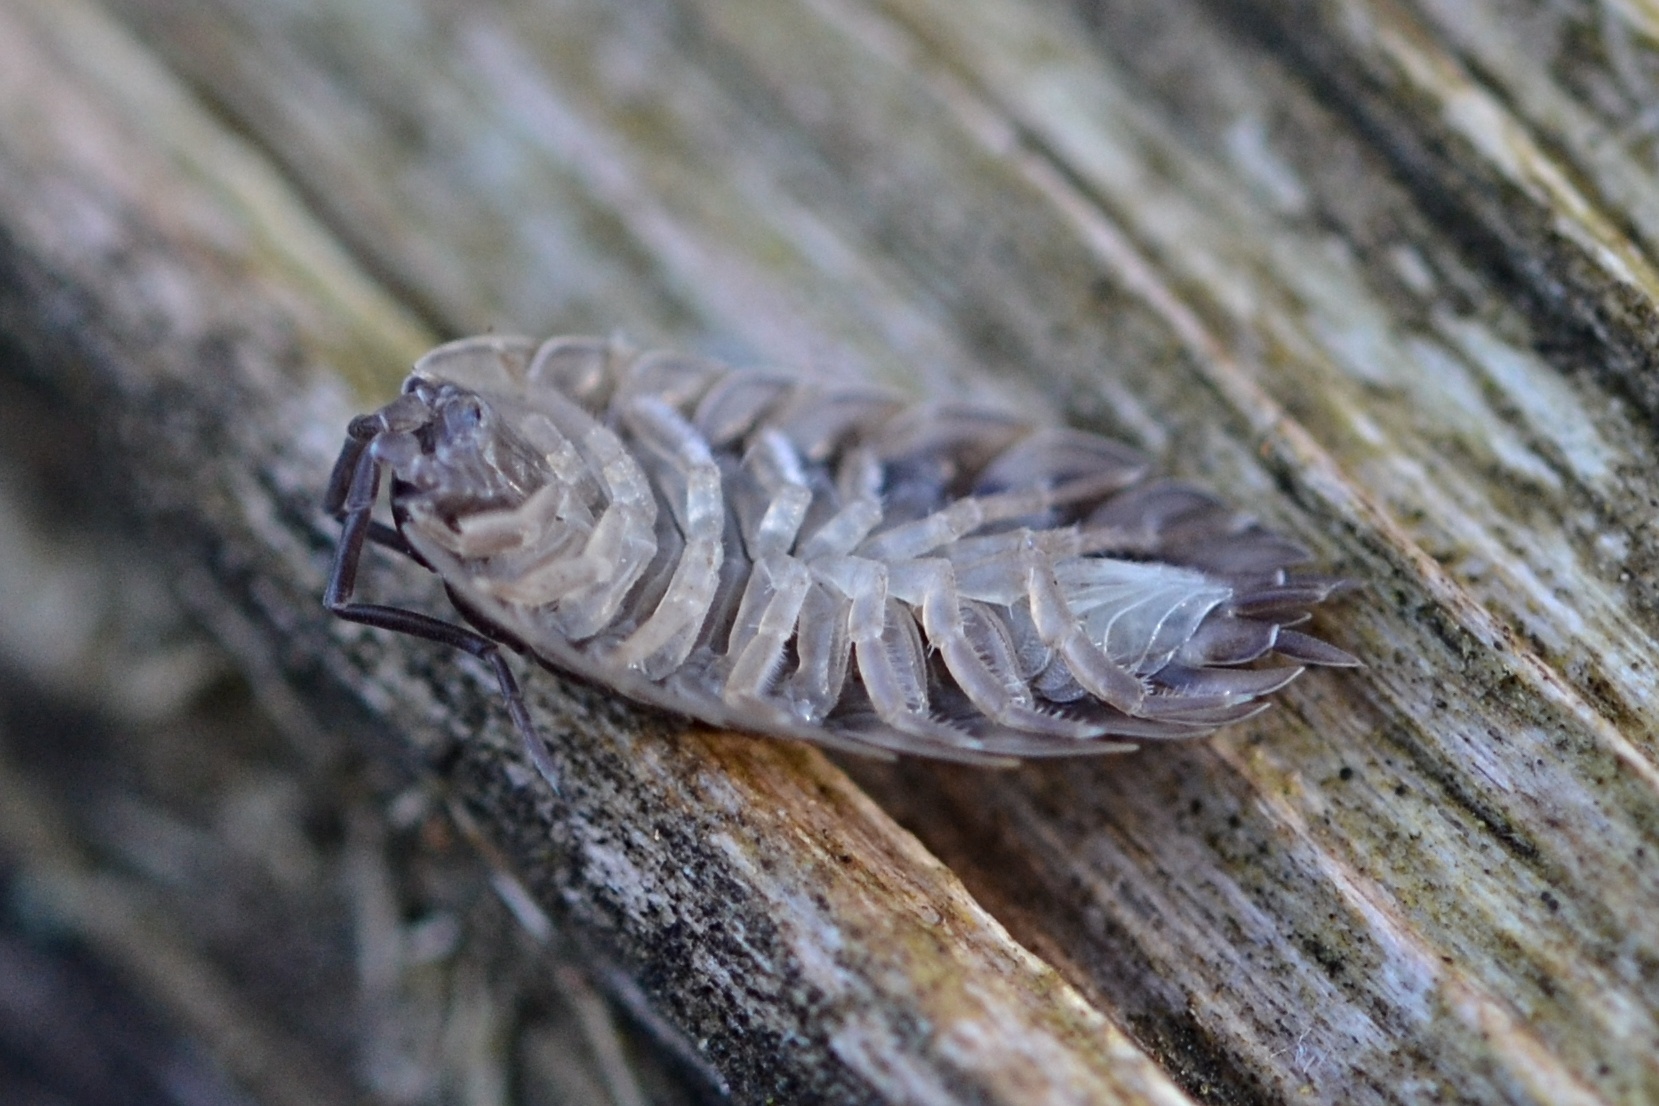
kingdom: Animalia
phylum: Arthropoda
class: Malacostraca
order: Isopoda
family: Oniscidae
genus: Oniscus
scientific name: Oniscus asellus
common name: Common shiny woodlouse
